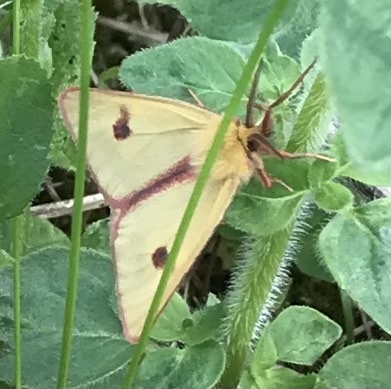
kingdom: Animalia
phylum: Arthropoda
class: Insecta
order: Lepidoptera
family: Erebidae
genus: Diacrisia
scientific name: Diacrisia sannio
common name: Clouded buff
